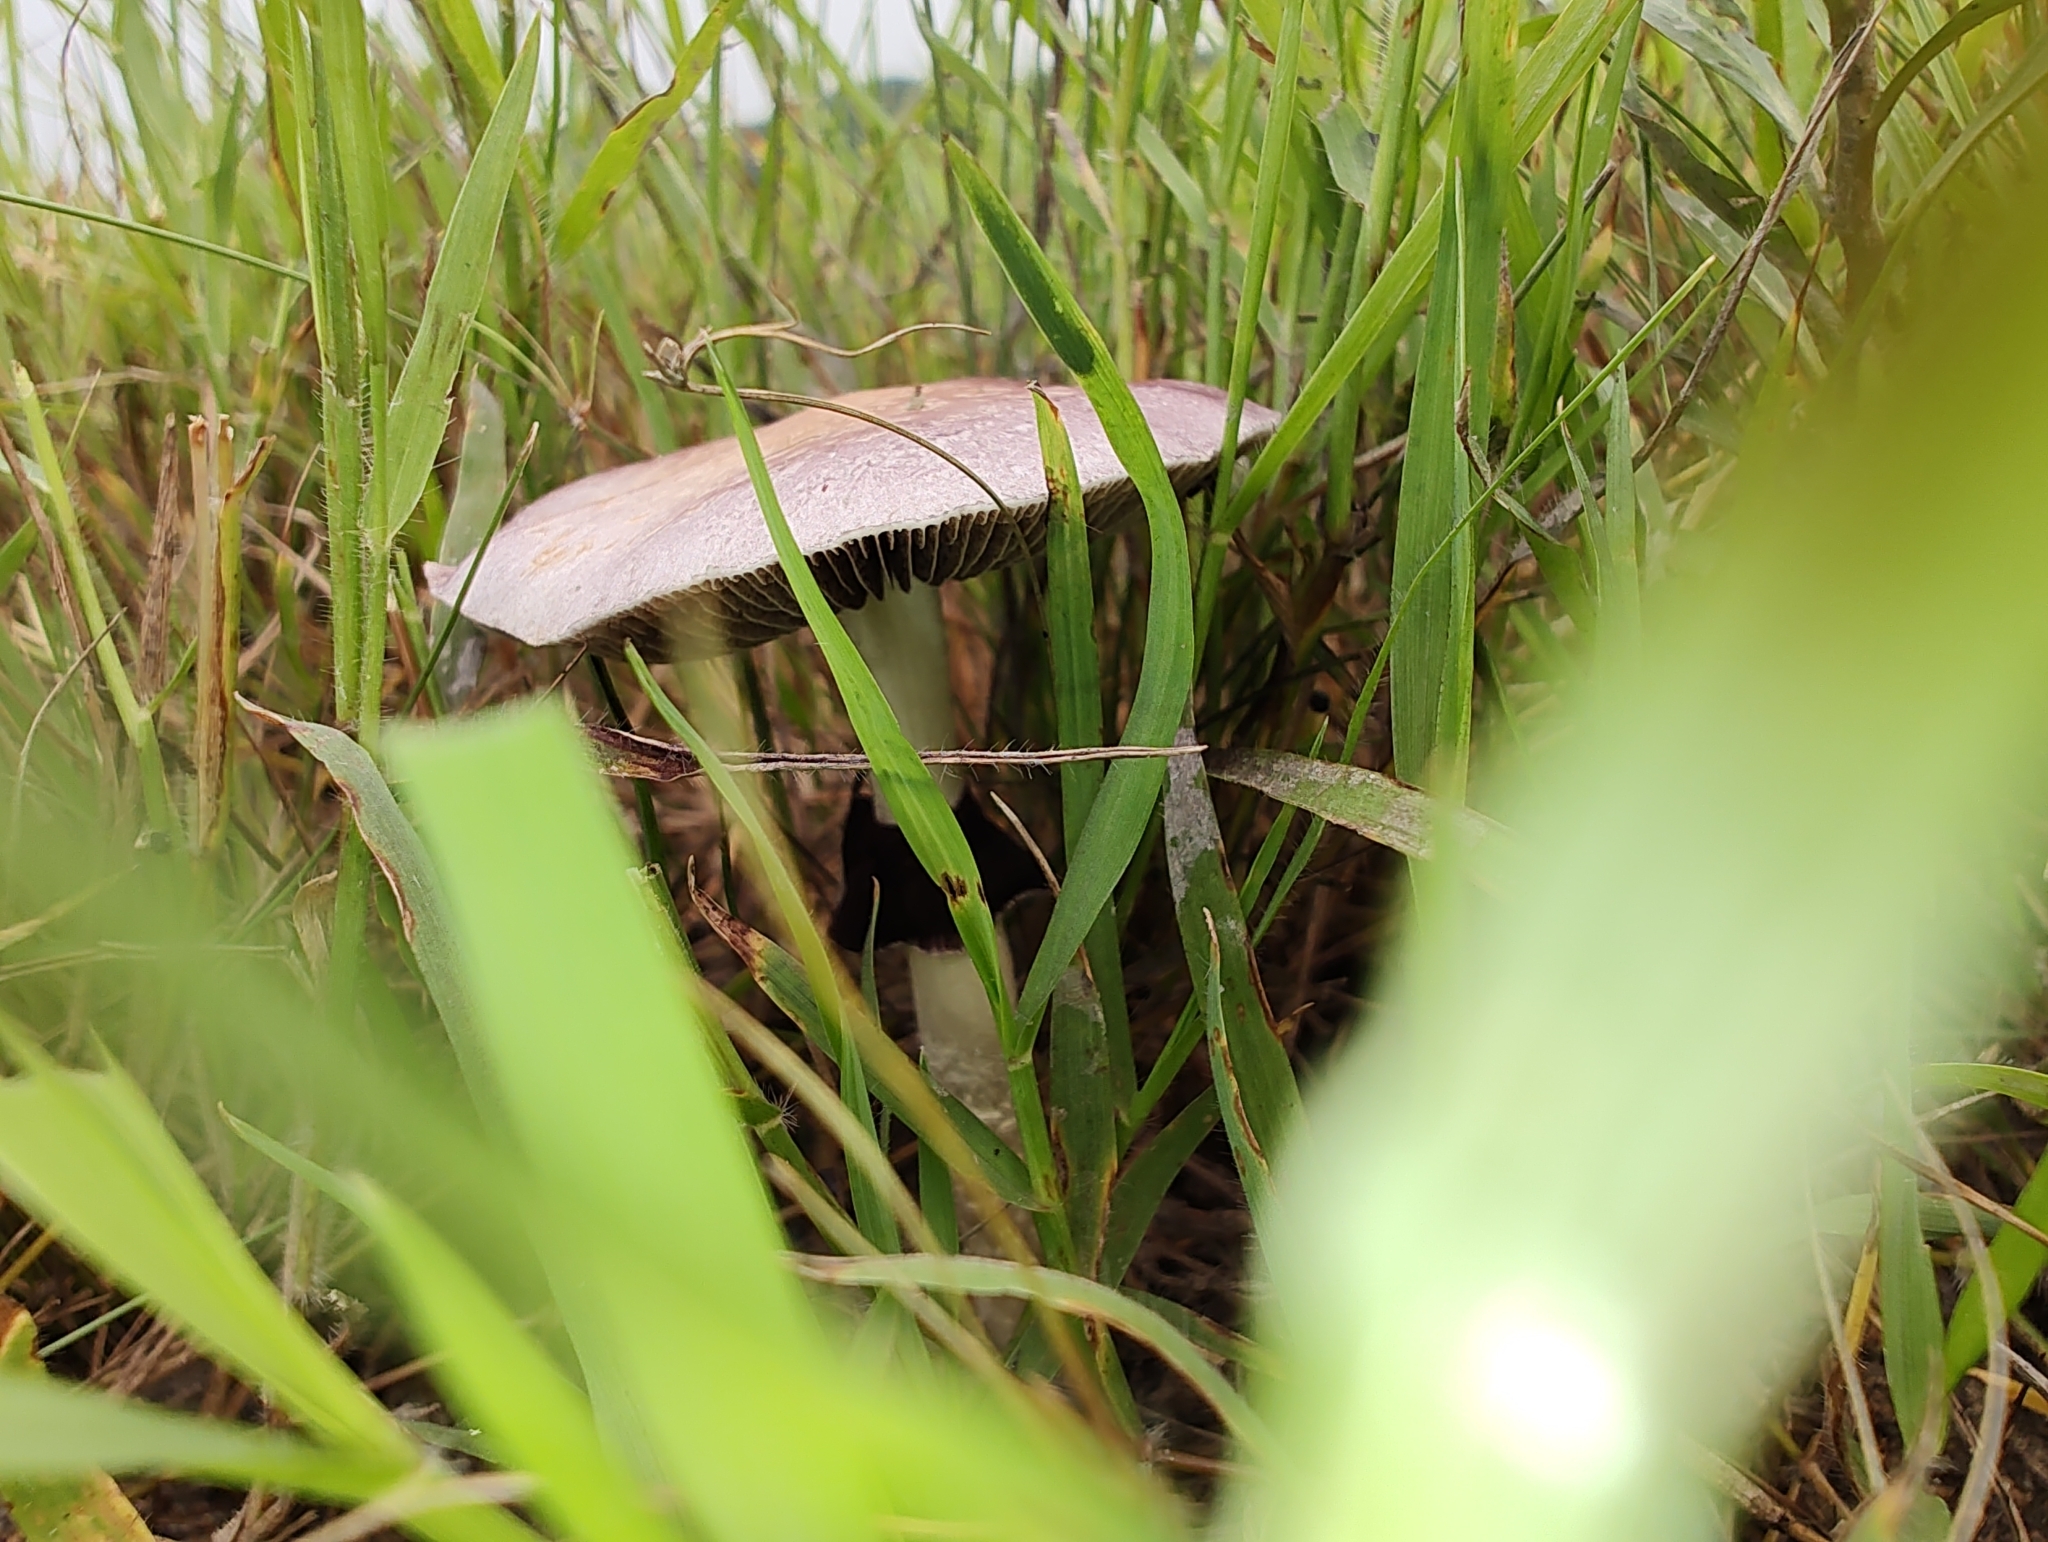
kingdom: Fungi
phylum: Basidiomycota
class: Agaricomycetes
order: Agaricales
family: Hymenogastraceae
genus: Psilocybe
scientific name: Psilocybe cubensis
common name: Golden brownie
